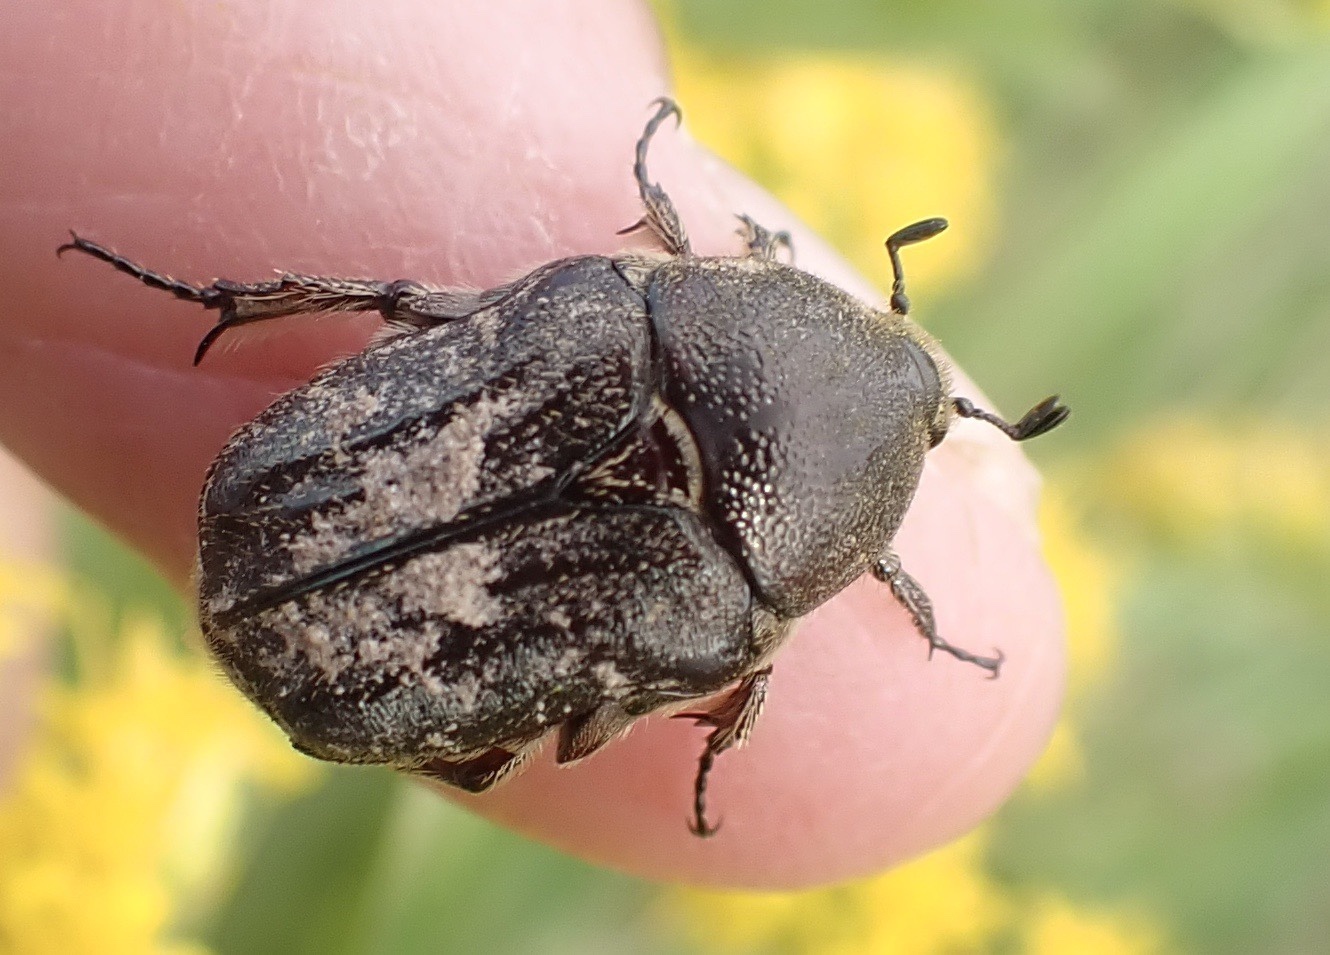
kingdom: Animalia
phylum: Arthropoda
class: Insecta
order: Coleoptera
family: Scarabaeidae
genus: Euphoria
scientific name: Euphoria sepulcralis
